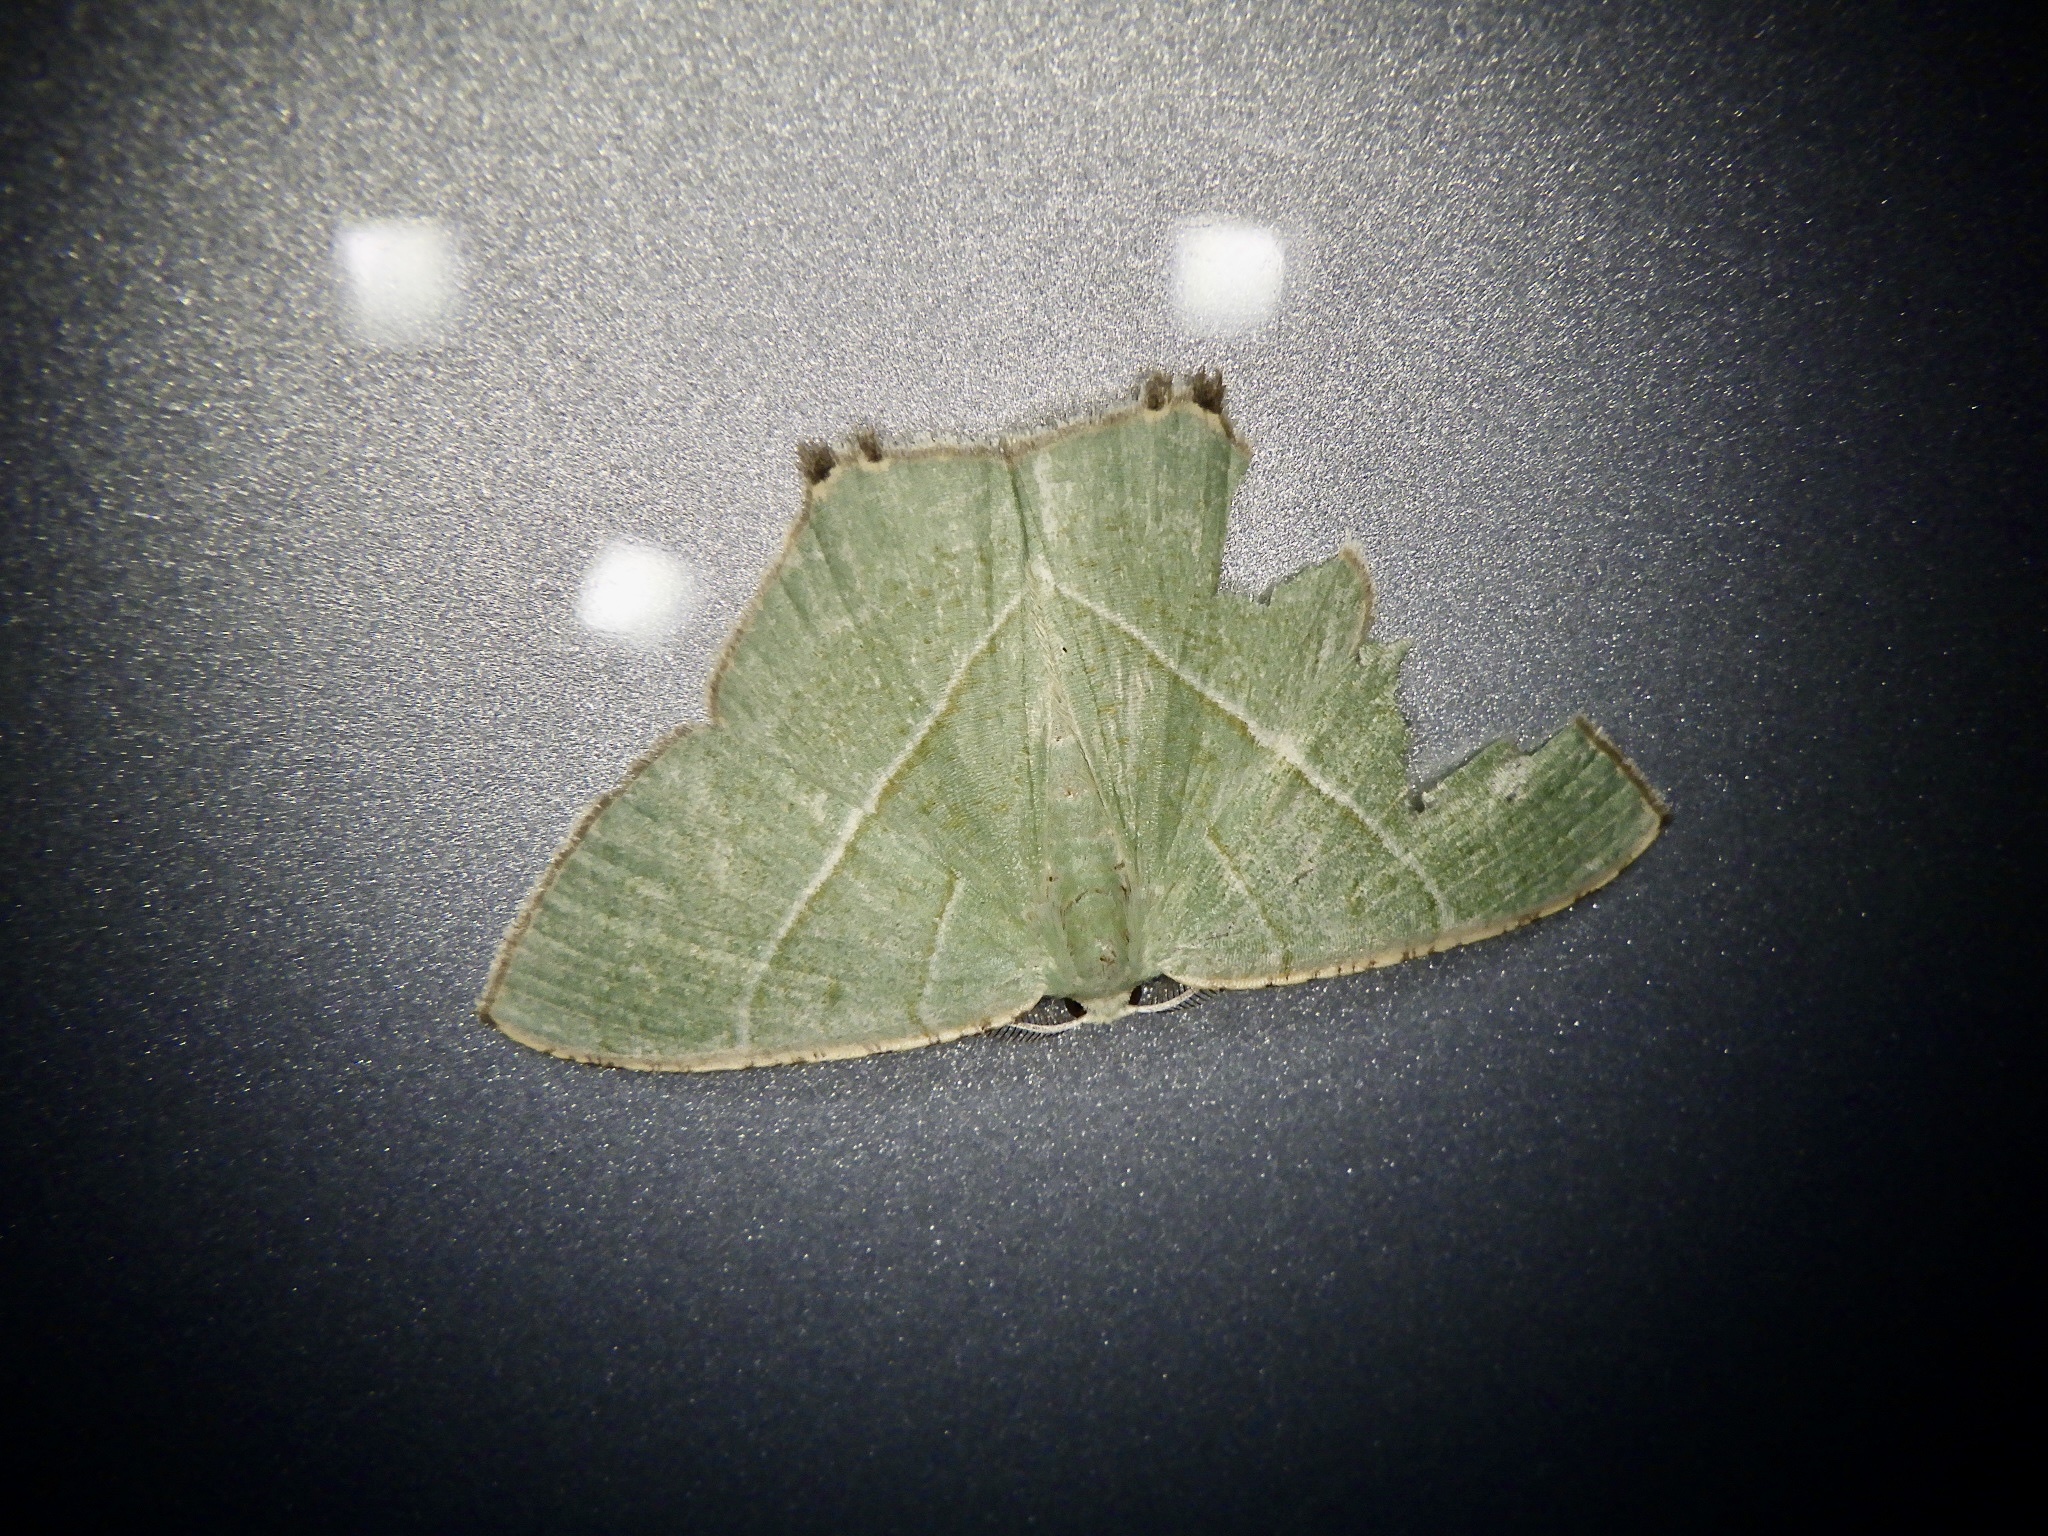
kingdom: Animalia
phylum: Arthropoda
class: Insecta
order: Lepidoptera
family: Geometridae
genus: Neohipparchus
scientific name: Neohipparchus vallata
